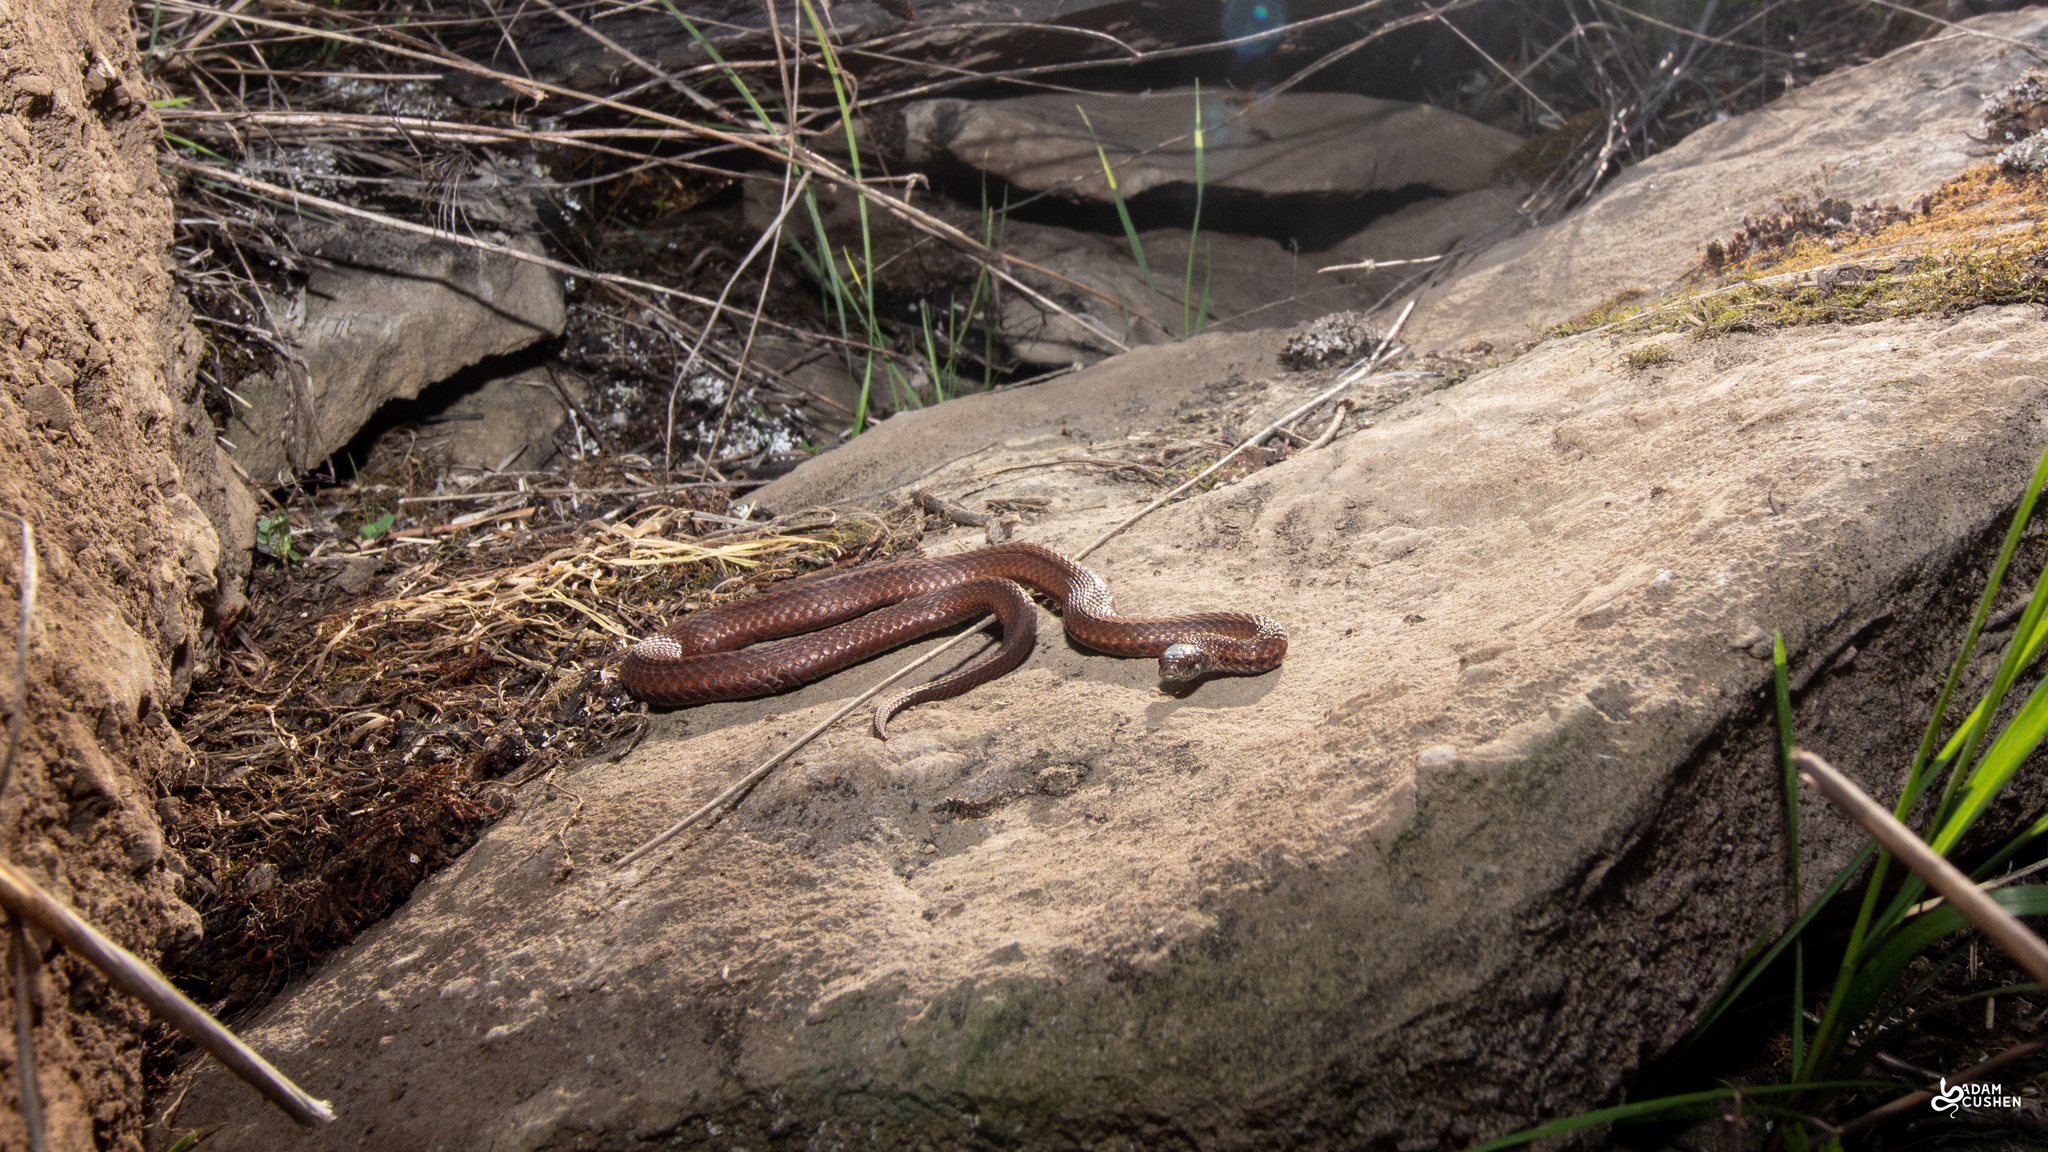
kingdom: Animalia
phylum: Chordata
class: Squamata
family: Colubridae
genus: Storeria
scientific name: Storeria occipitomaculata
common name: Redbelly snake
